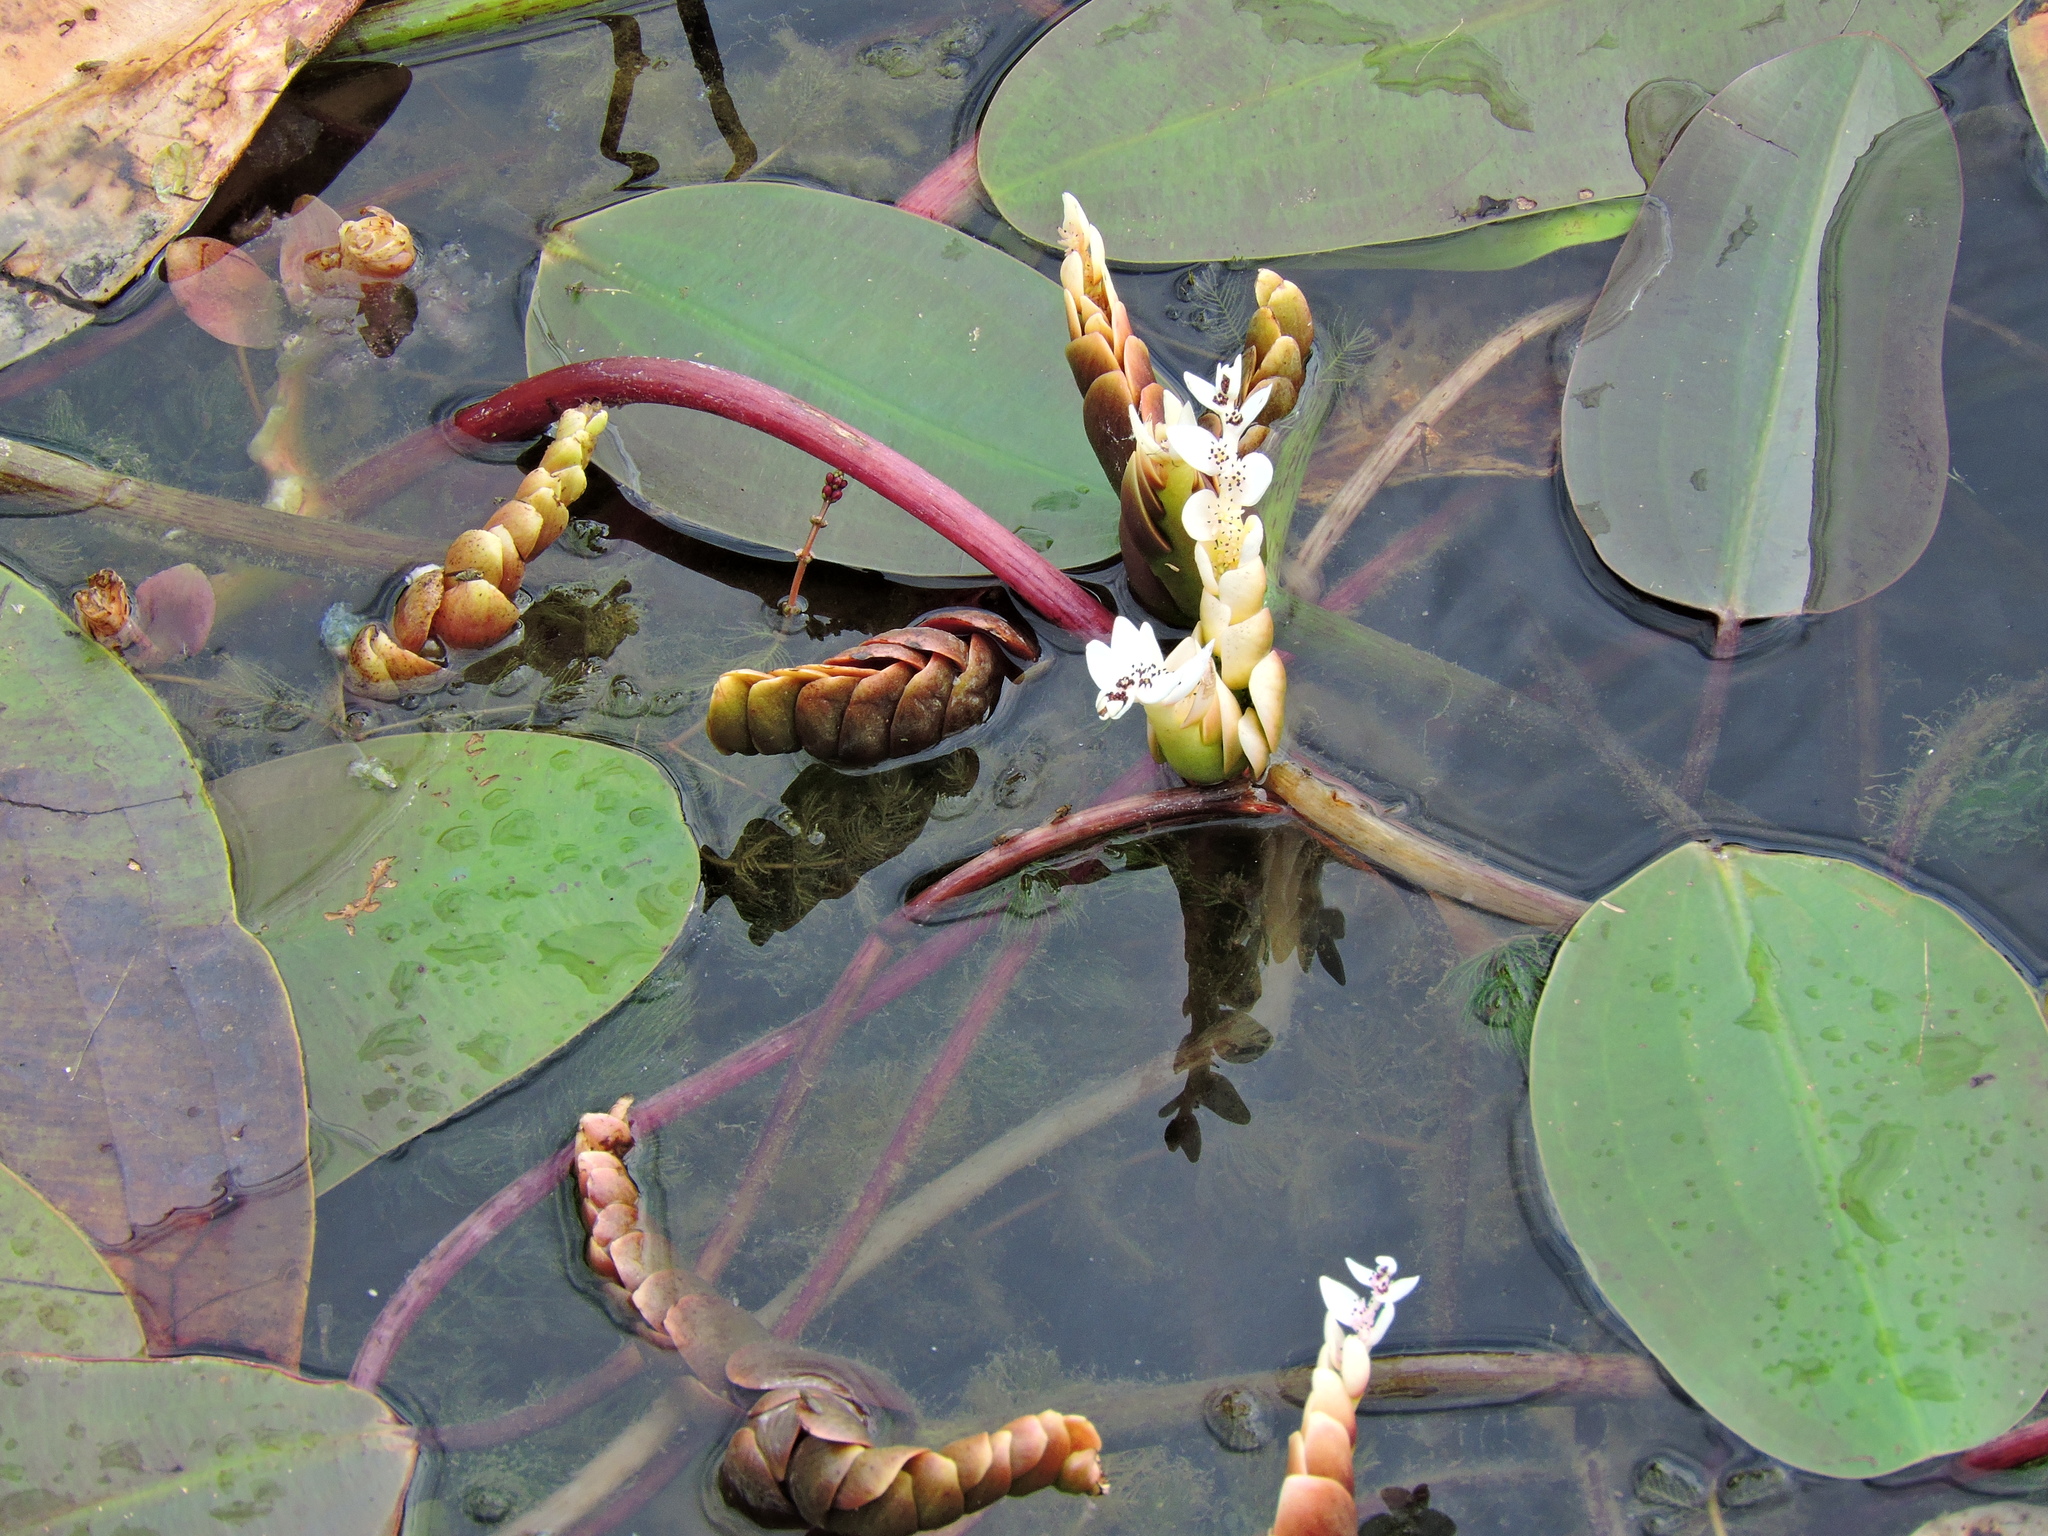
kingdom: Plantae
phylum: Tracheophyta
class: Liliopsida
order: Alismatales
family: Aponogetonaceae
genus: Aponogeton
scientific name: Aponogeton distachyos
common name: Cape-pondweed
